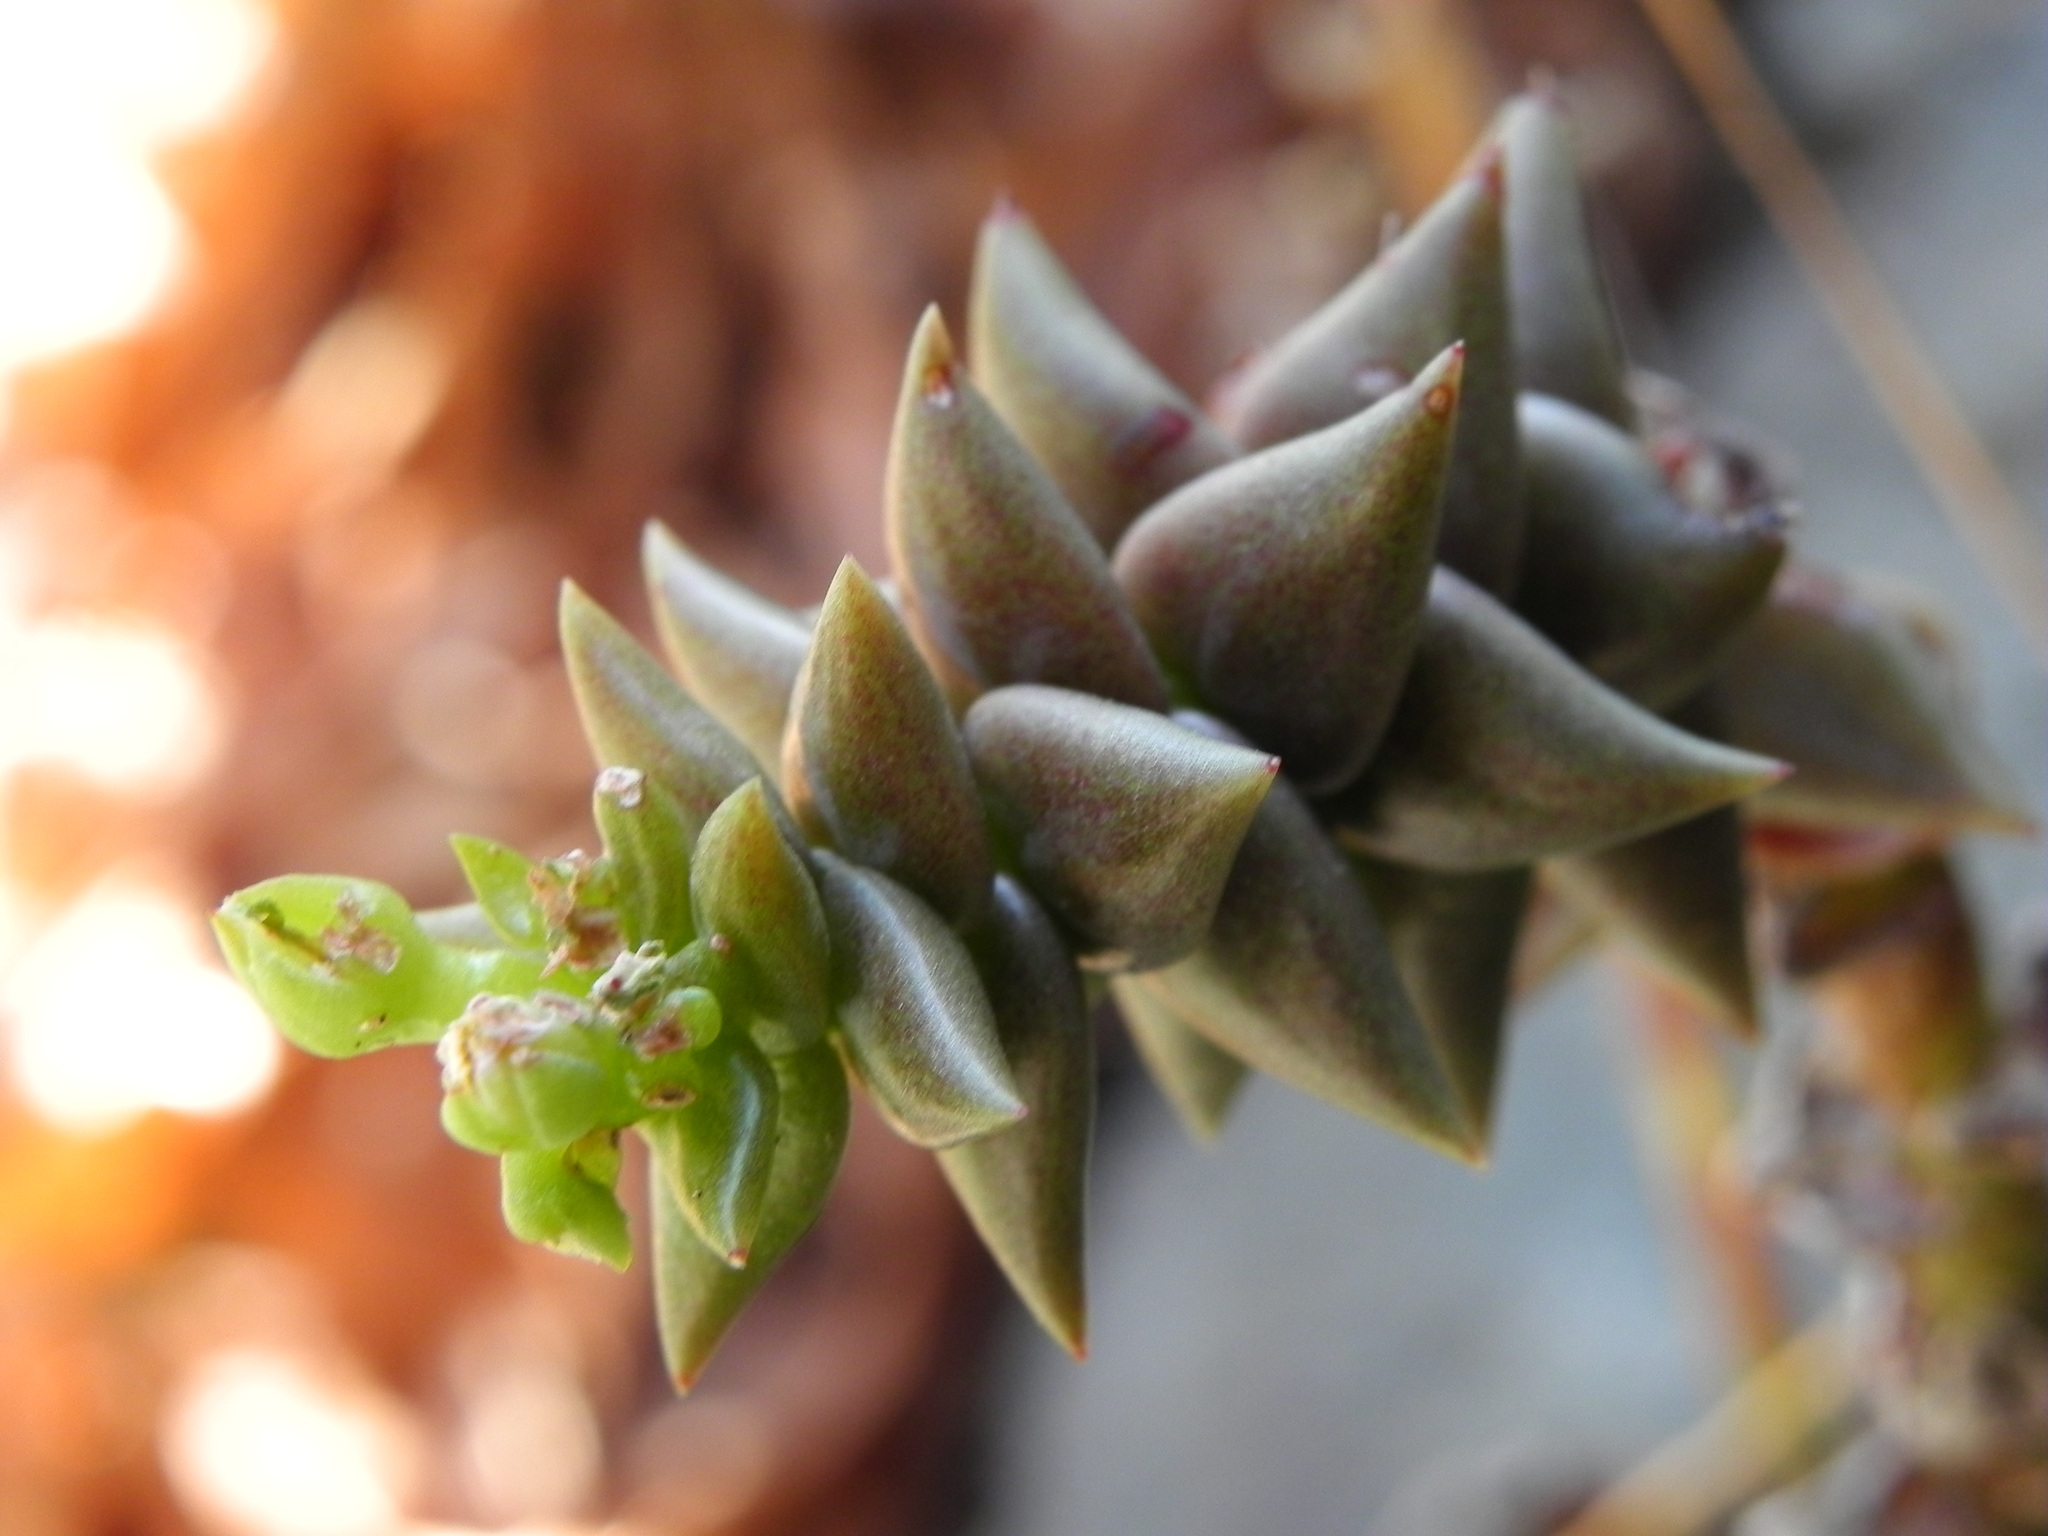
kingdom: Plantae
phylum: Tracheophyta
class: Magnoliopsida
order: Saxifragales
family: Crassulaceae
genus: Dudleya
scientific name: Dudleya cymosa
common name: Canyon dudleya
